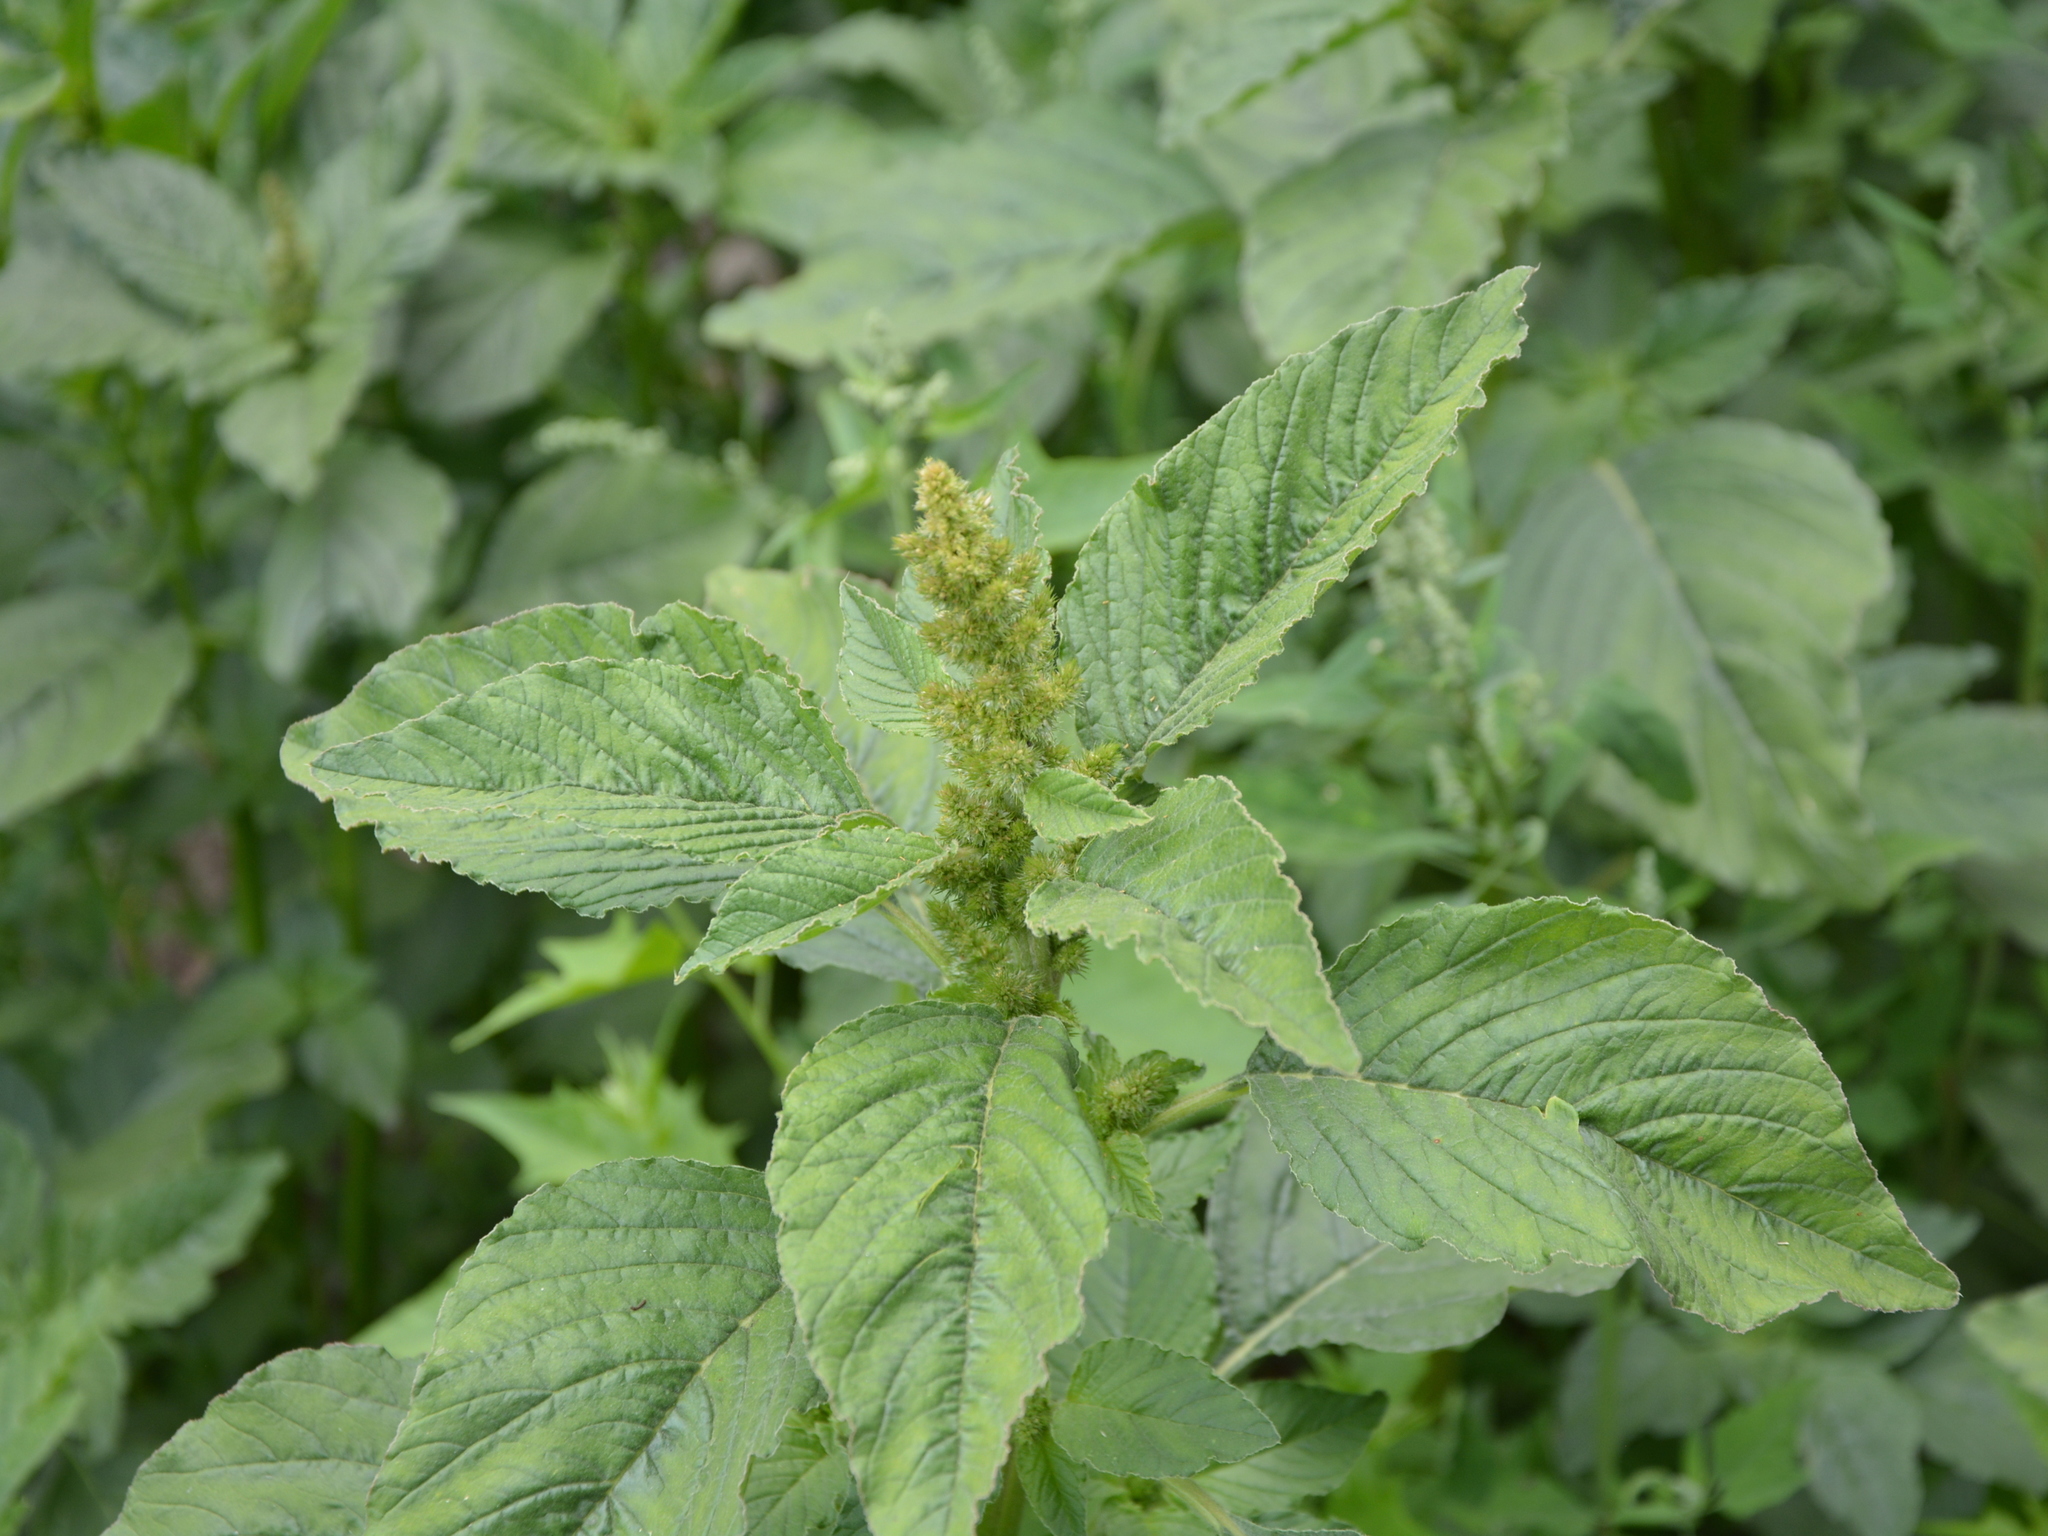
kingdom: Plantae
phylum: Tracheophyta
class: Magnoliopsida
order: Caryophyllales
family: Amaranthaceae
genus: Amaranthus
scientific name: Amaranthus retroflexus
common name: Redroot amaranth
